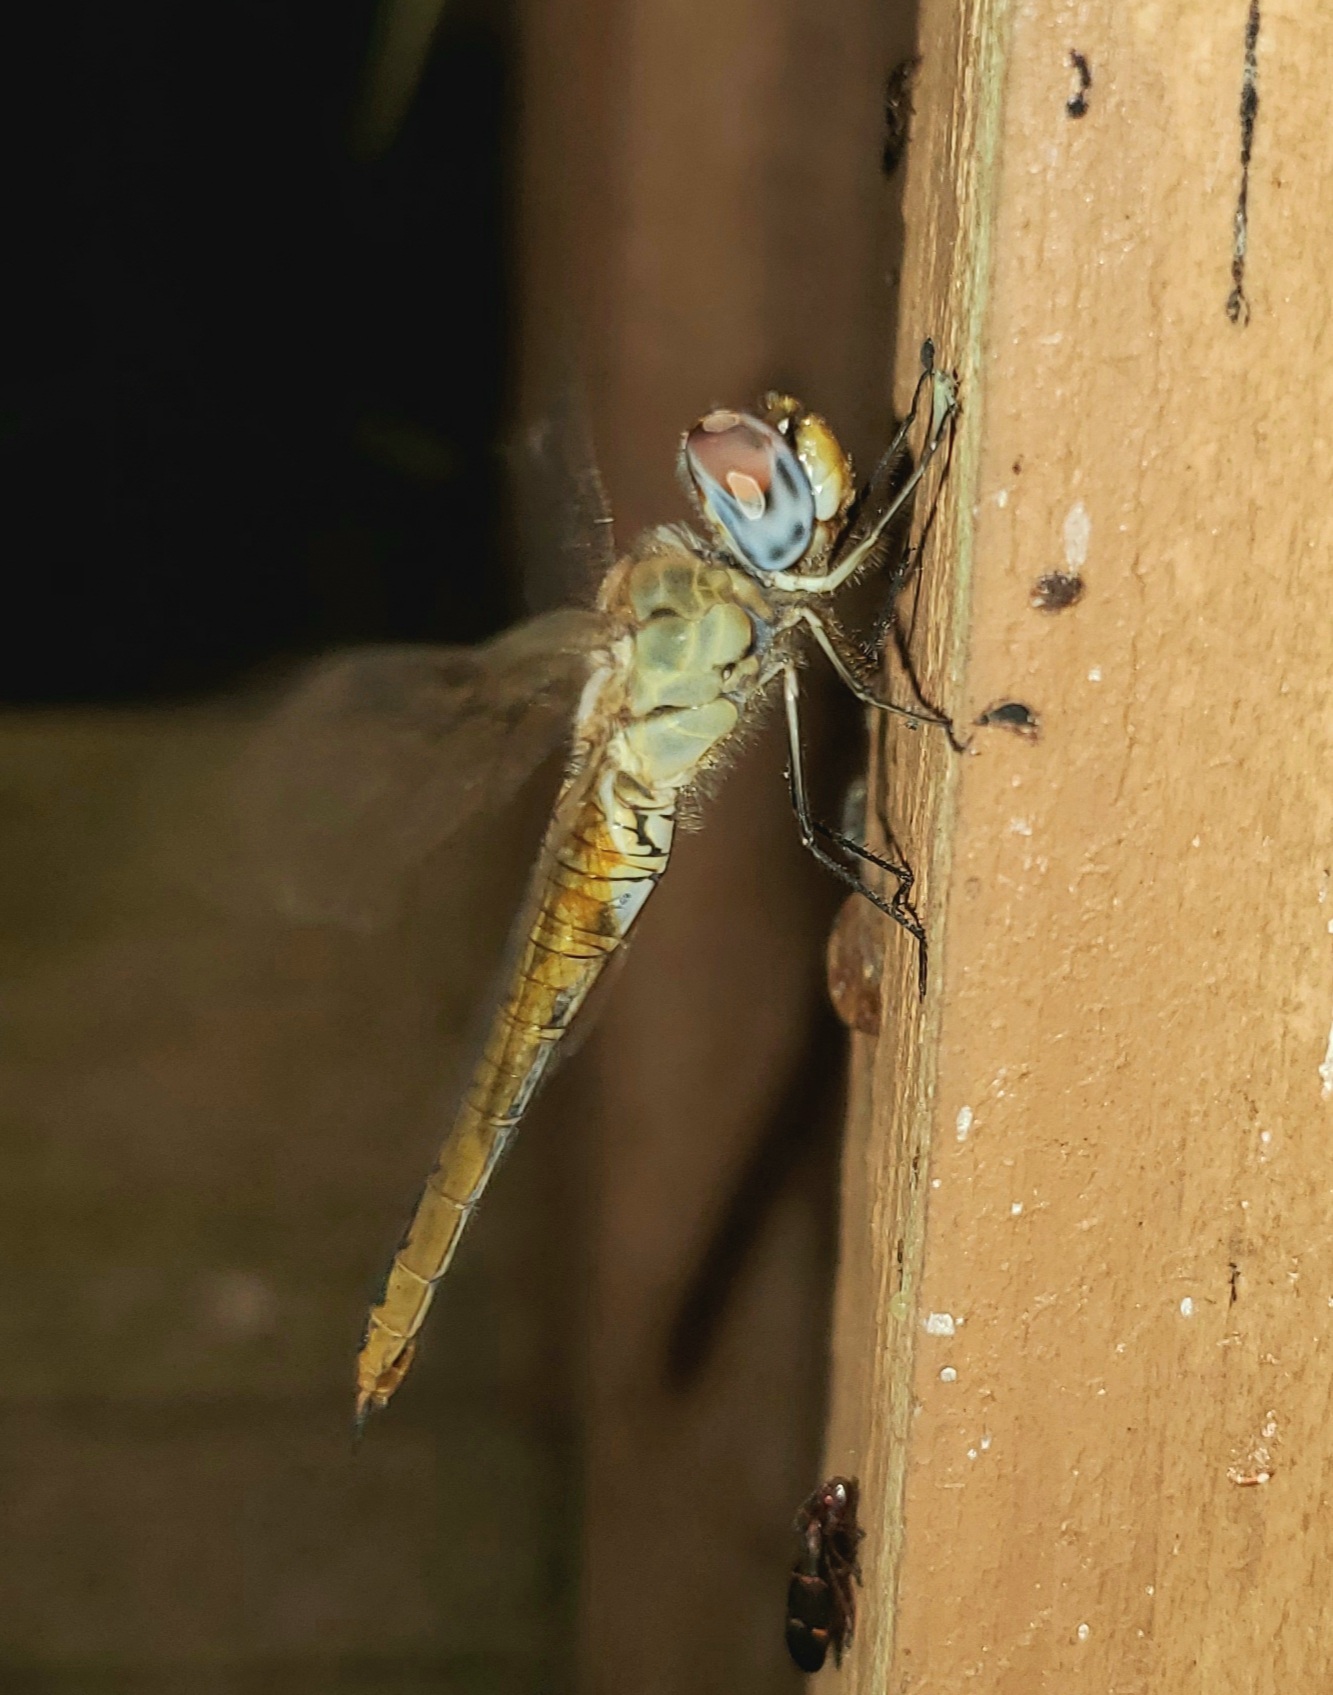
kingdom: Animalia
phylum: Arthropoda
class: Insecta
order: Odonata
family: Libellulidae
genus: Pantala
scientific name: Pantala flavescens
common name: Wandering glider
